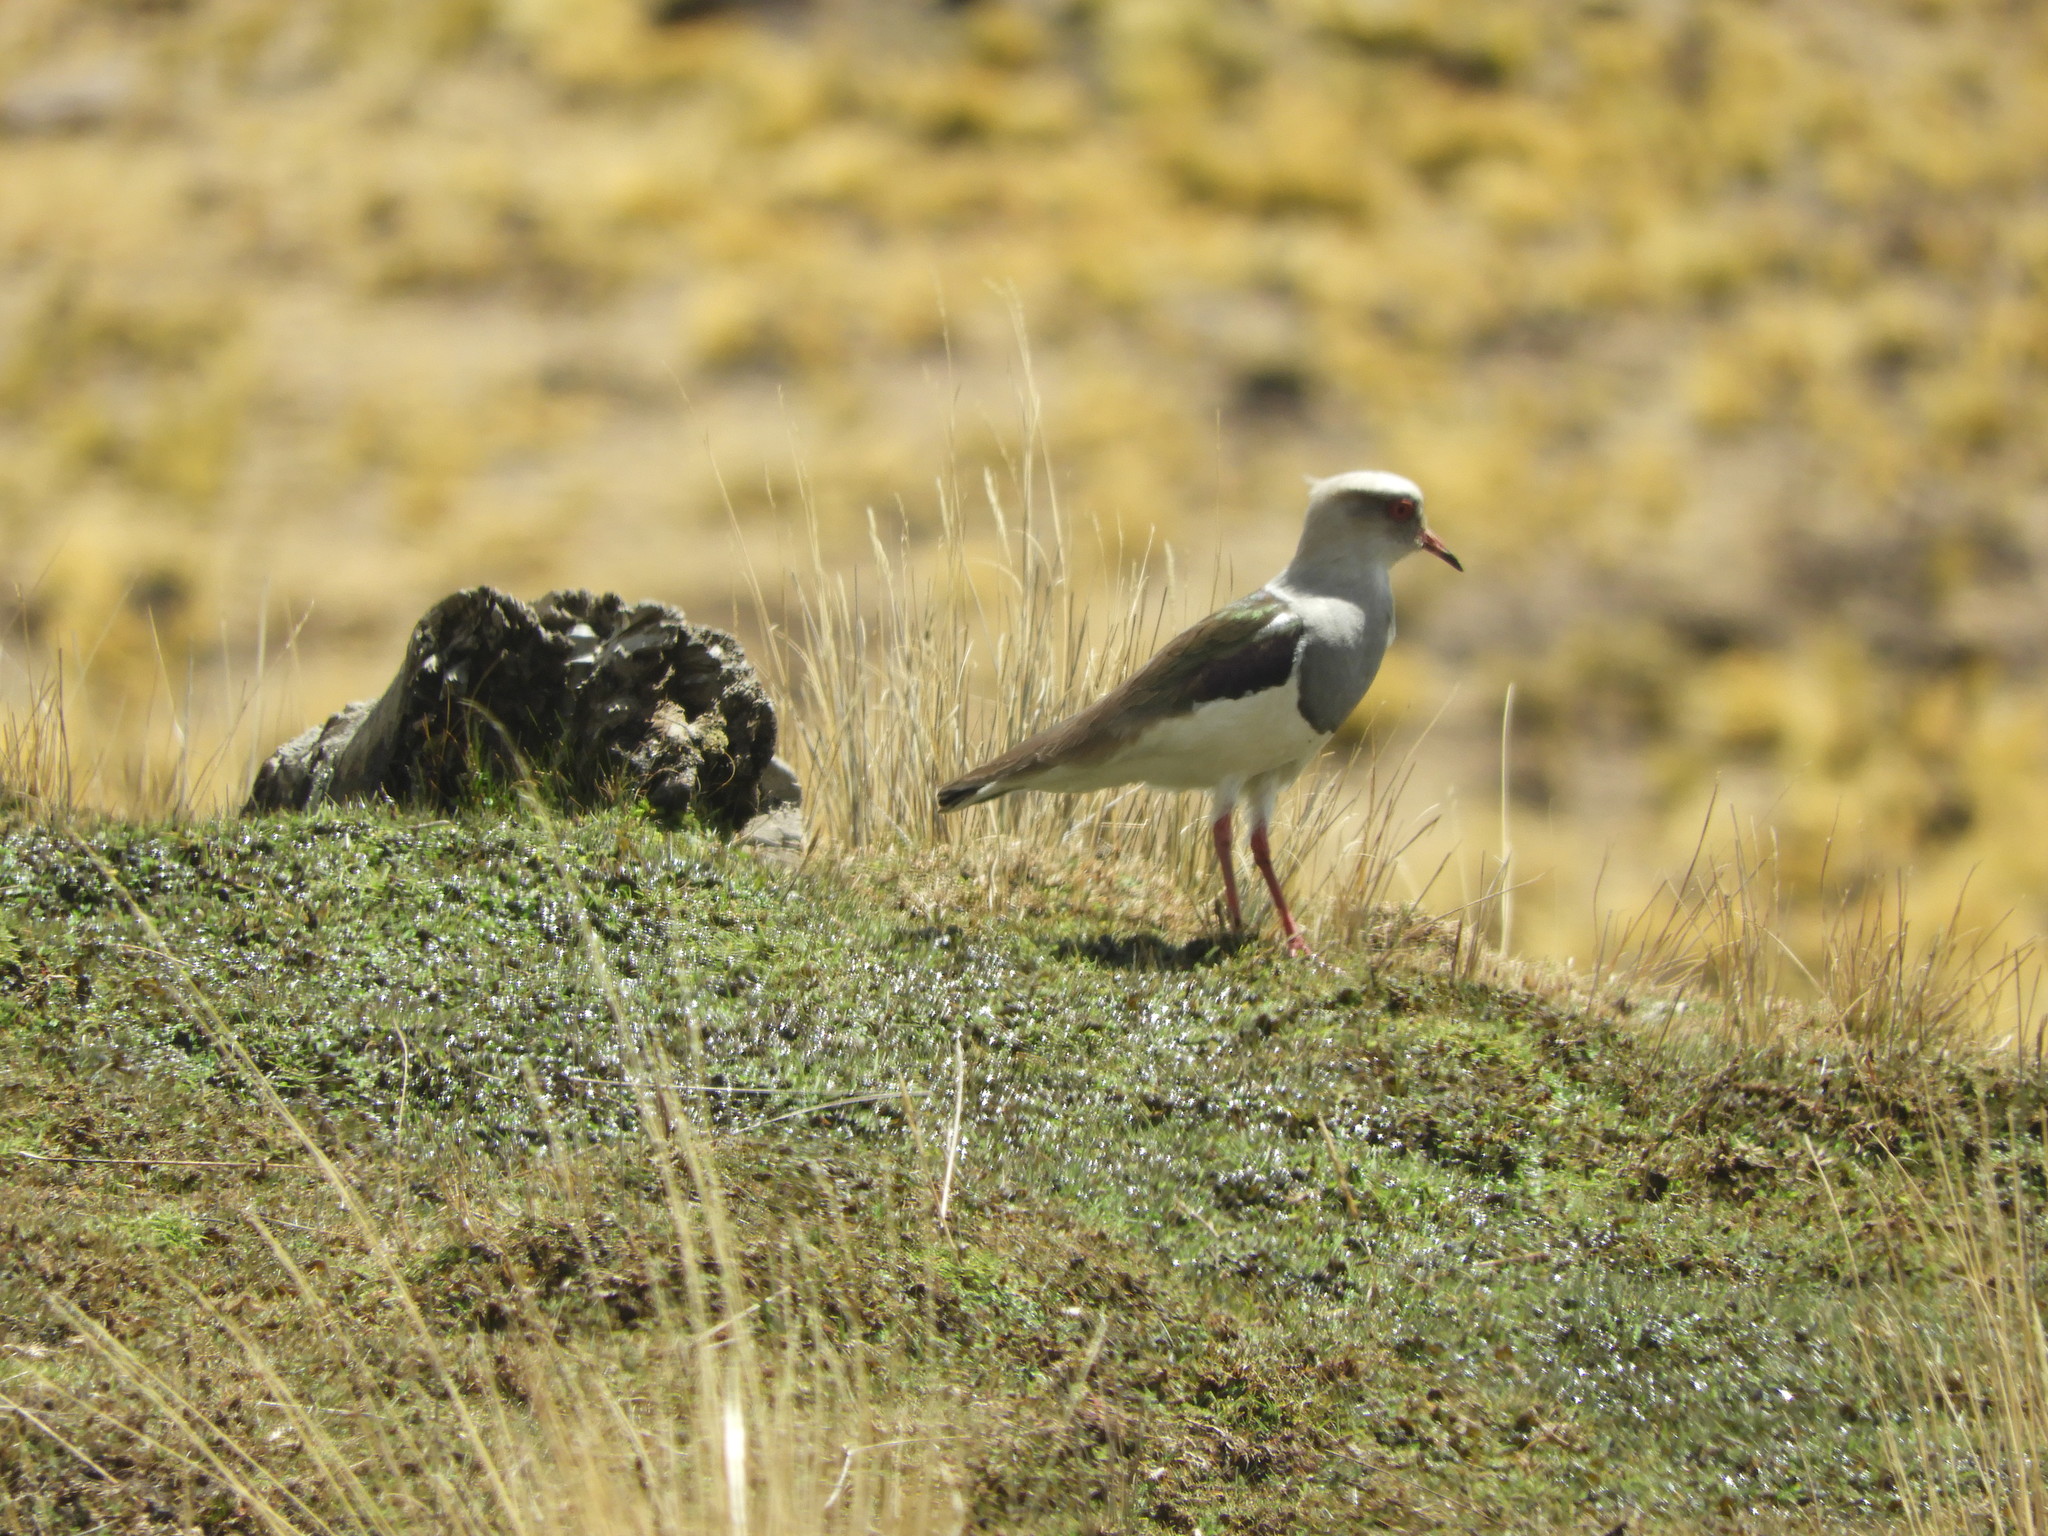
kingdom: Animalia
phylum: Chordata
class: Aves
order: Charadriiformes
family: Charadriidae
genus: Vanellus
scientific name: Vanellus resplendens
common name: Andean lapwing
